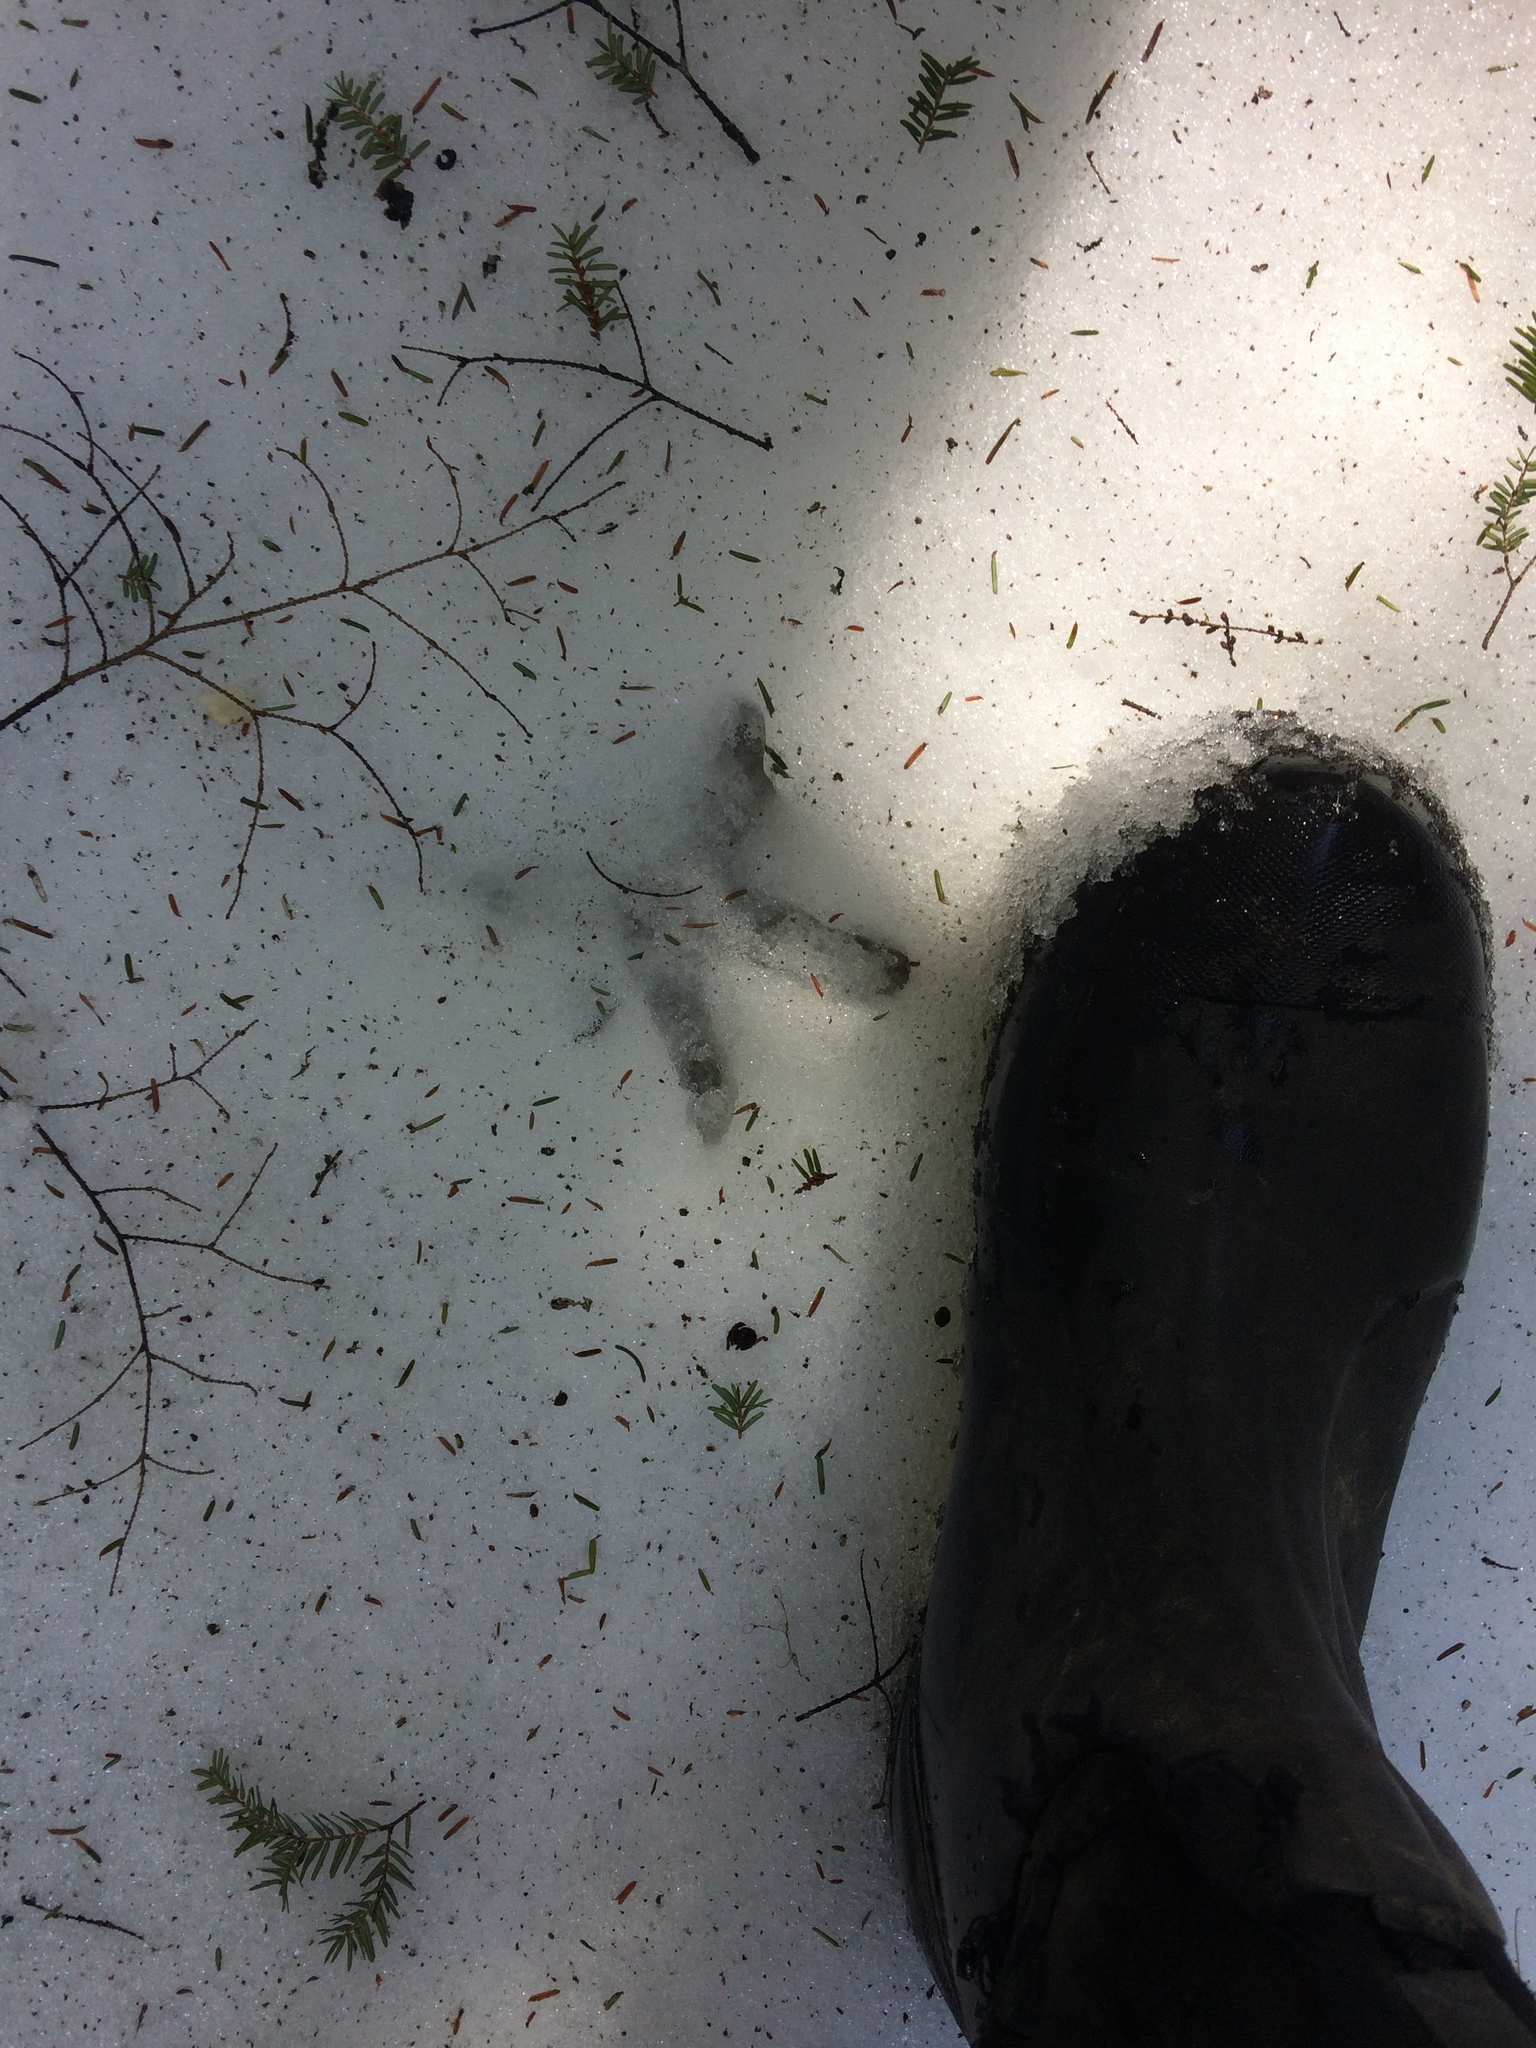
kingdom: Animalia
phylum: Chordata
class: Aves
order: Galliformes
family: Phasianidae
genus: Meleagris
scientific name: Meleagris gallopavo
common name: Wild turkey
